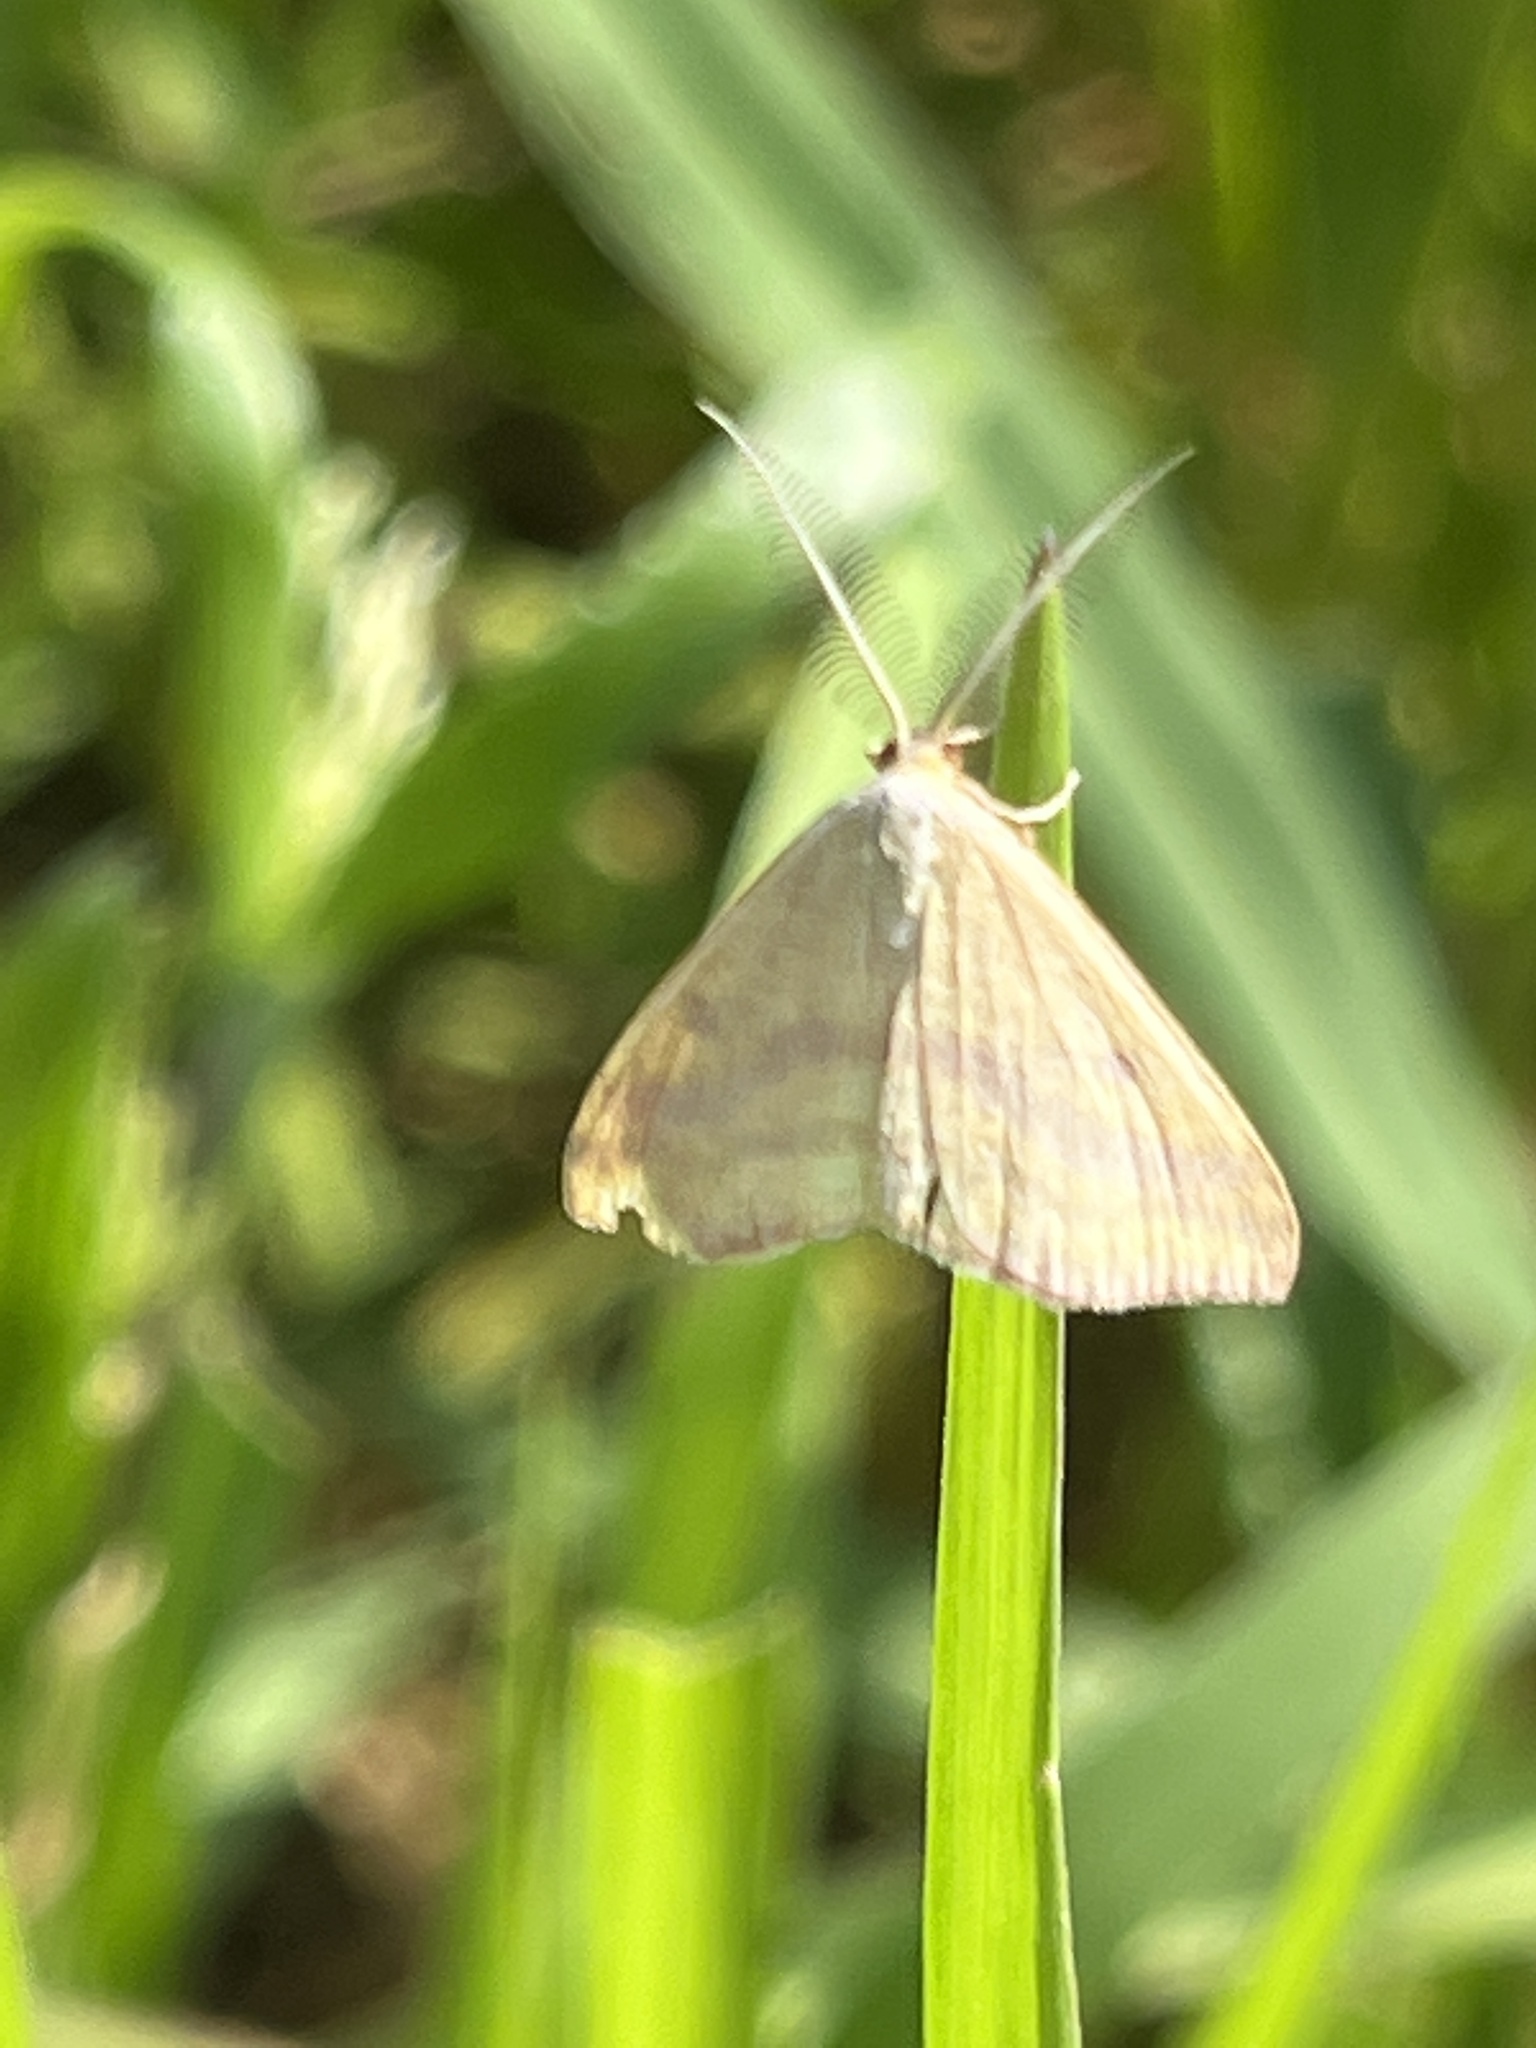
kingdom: Animalia
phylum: Arthropoda
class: Insecta
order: Lepidoptera
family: Geometridae
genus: Haematopis
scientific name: Haematopis grataria
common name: Chickweed geometer
